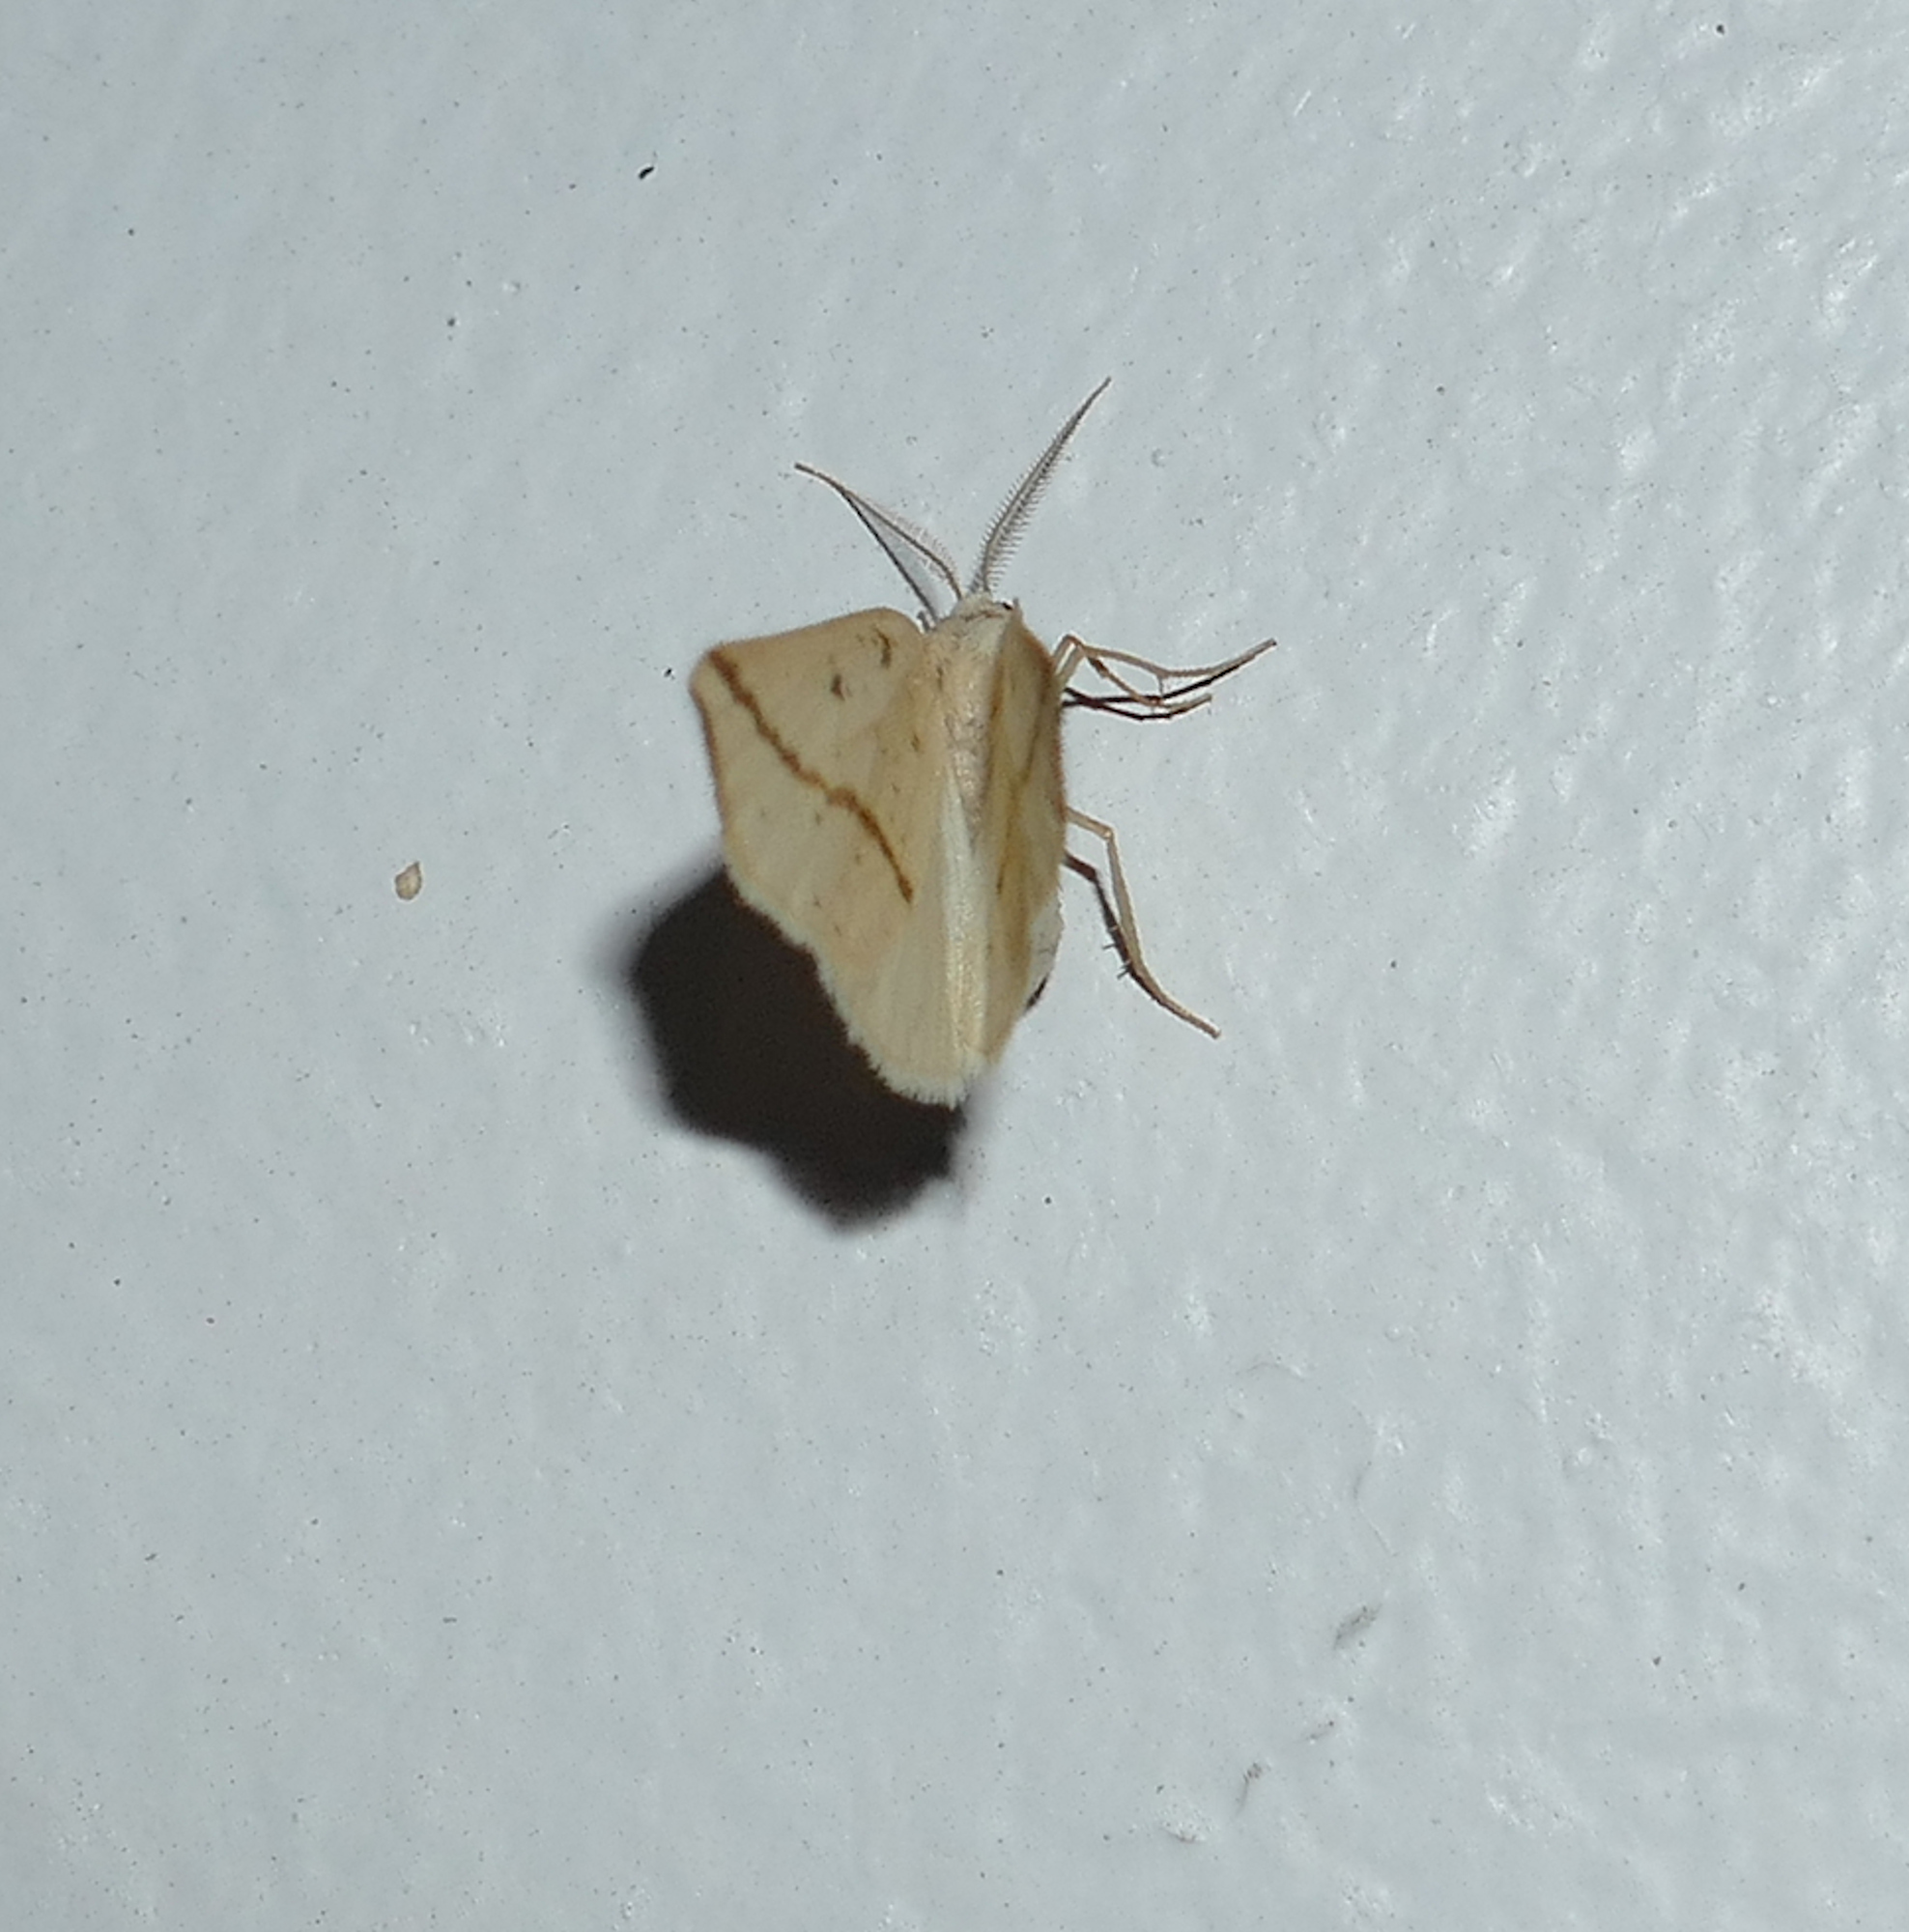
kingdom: Animalia
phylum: Arthropoda
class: Insecta
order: Lepidoptera
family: Geometridae
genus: Neoterpes
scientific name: Neoterpes ephelidaria
